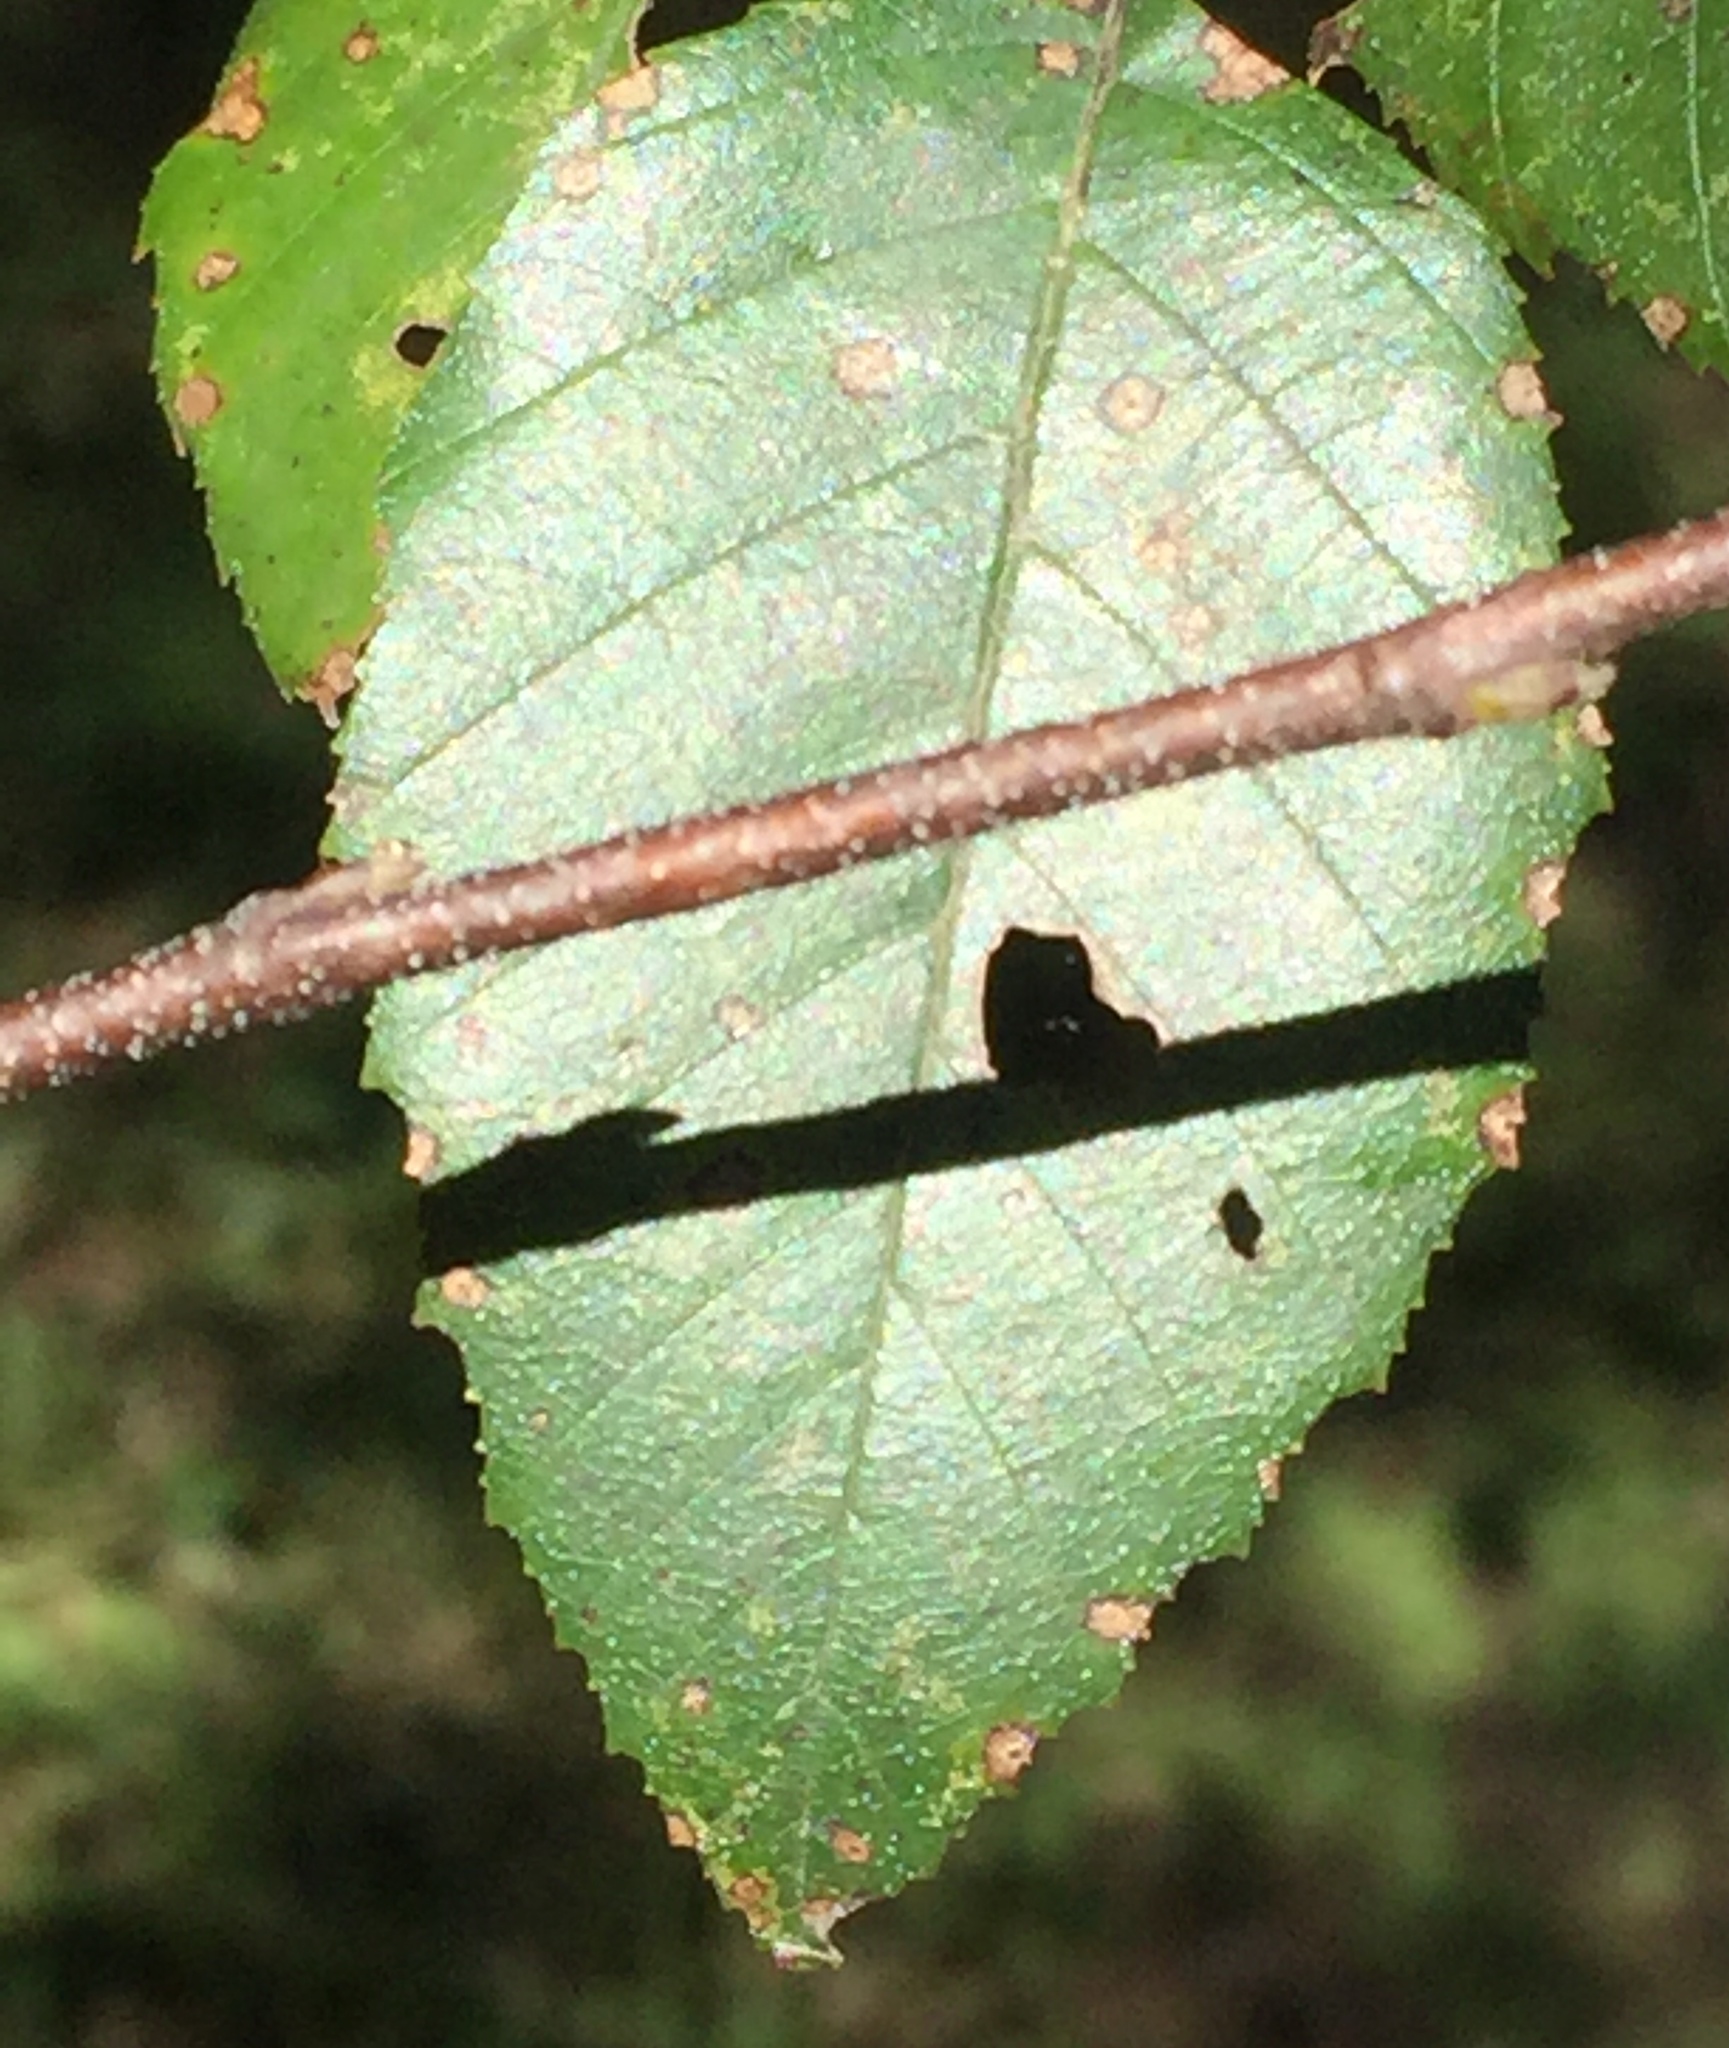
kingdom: Plantae
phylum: Tracheophyta
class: Magnoliopsida
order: Fagales
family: Betulaceae
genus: Betula
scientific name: Betula nigra
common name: Black birch
